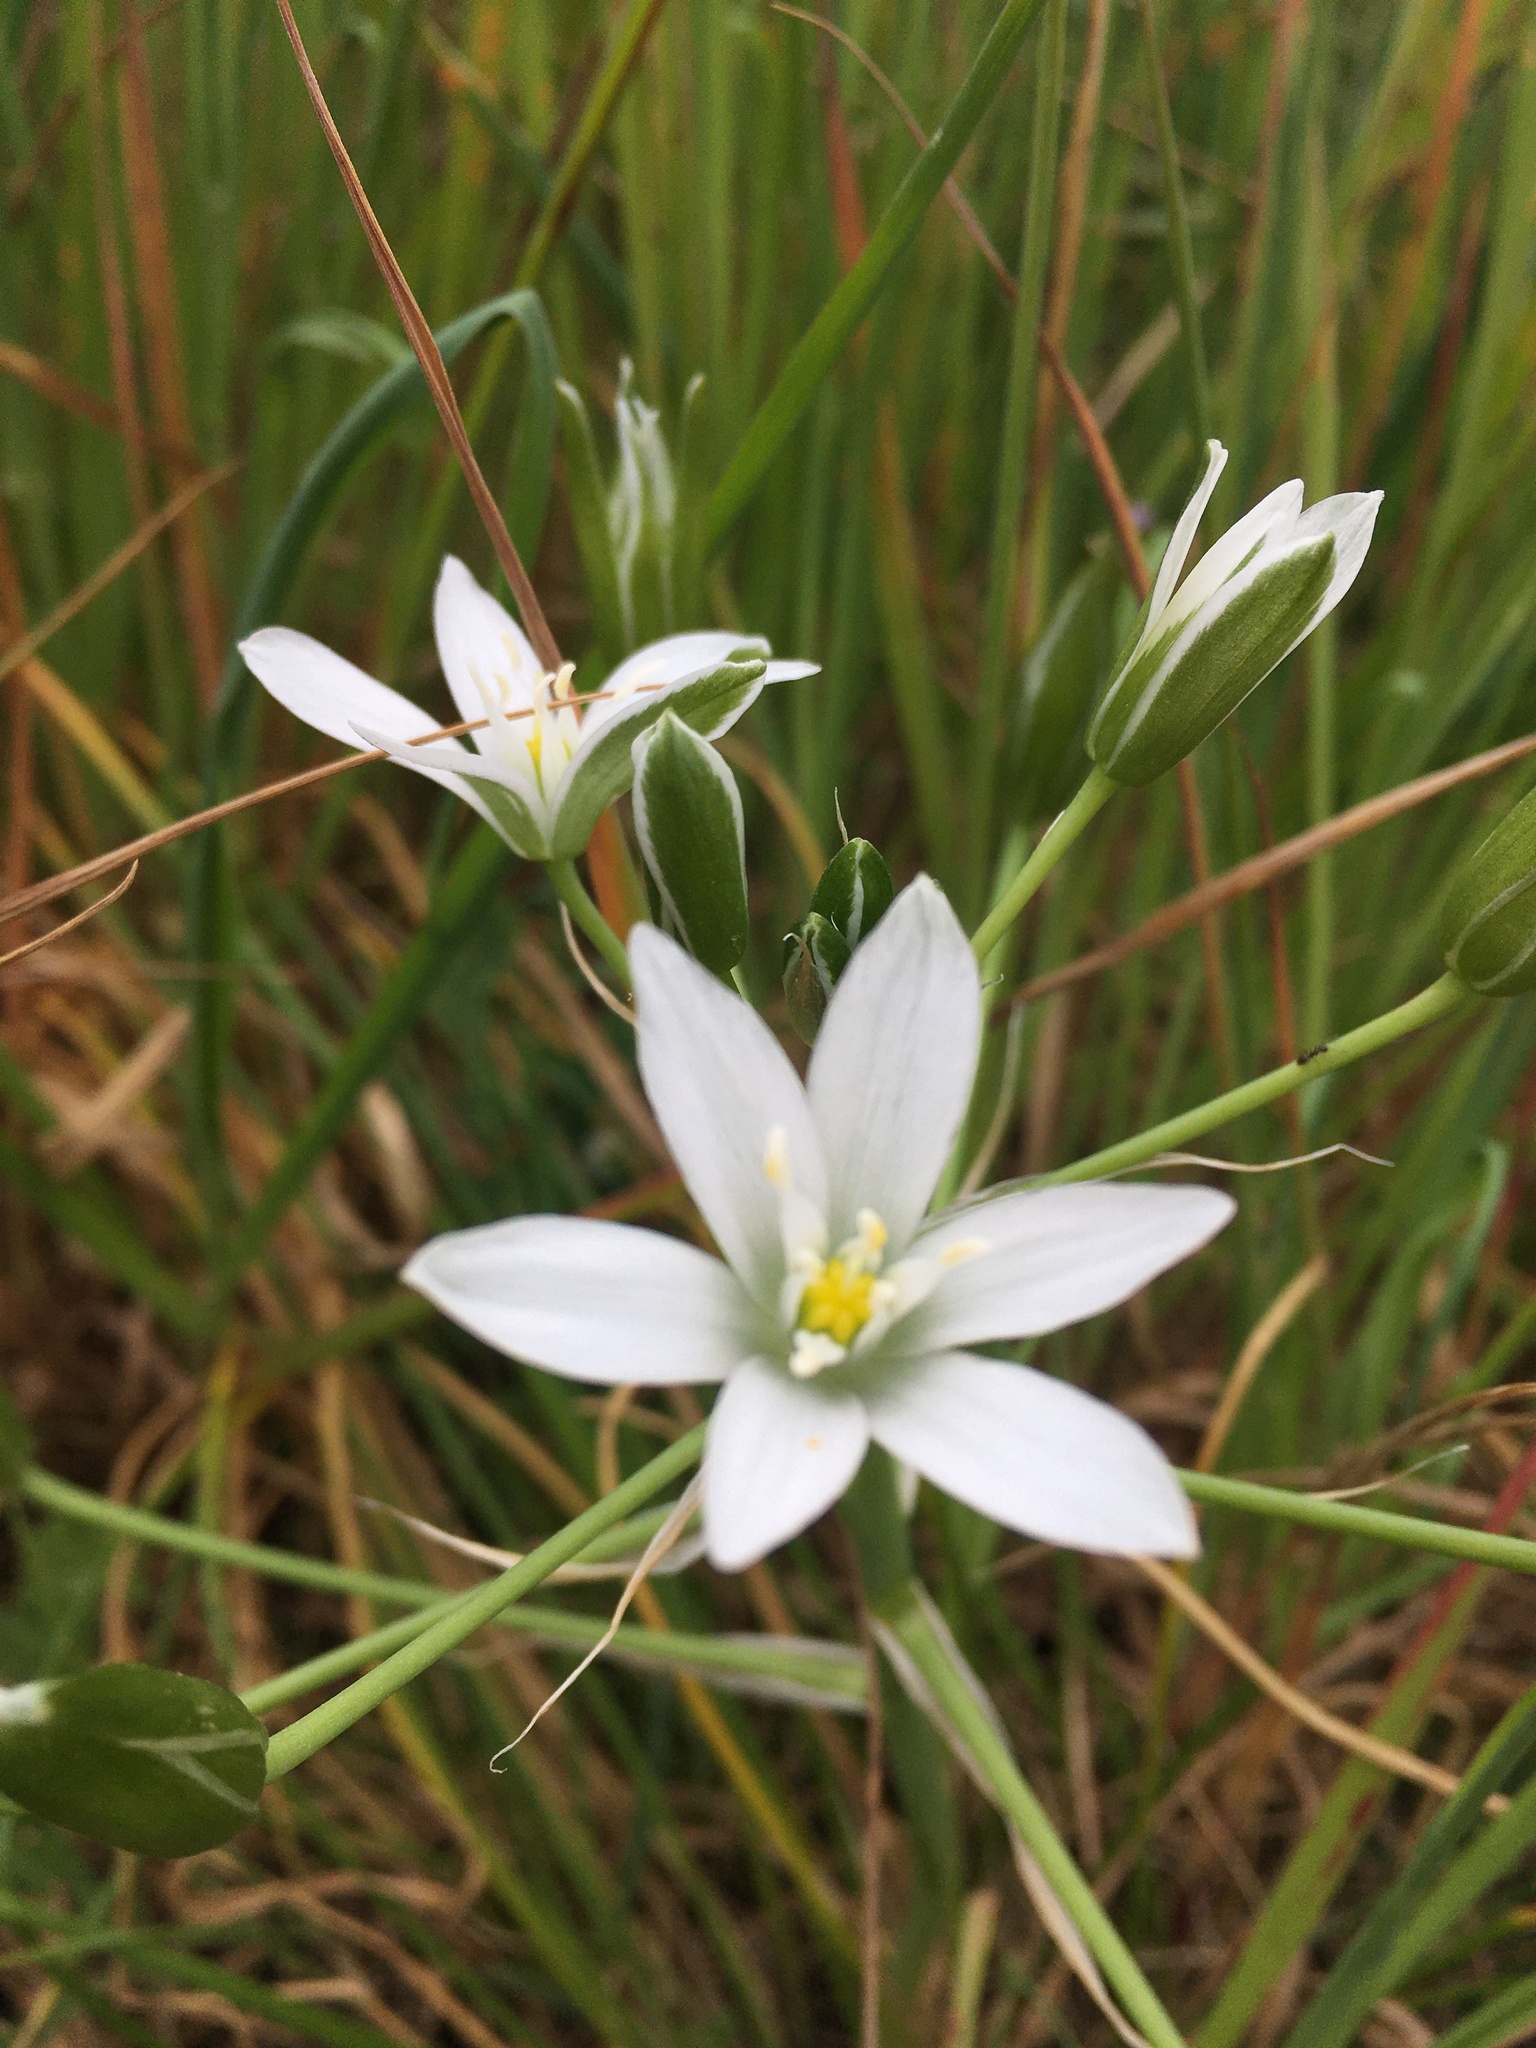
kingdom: Plantae
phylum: Tracheophyta
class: Liliopsida
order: Asparagales
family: Asparagaceae
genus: Ornithogalum
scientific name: Ornithogalum divergens
